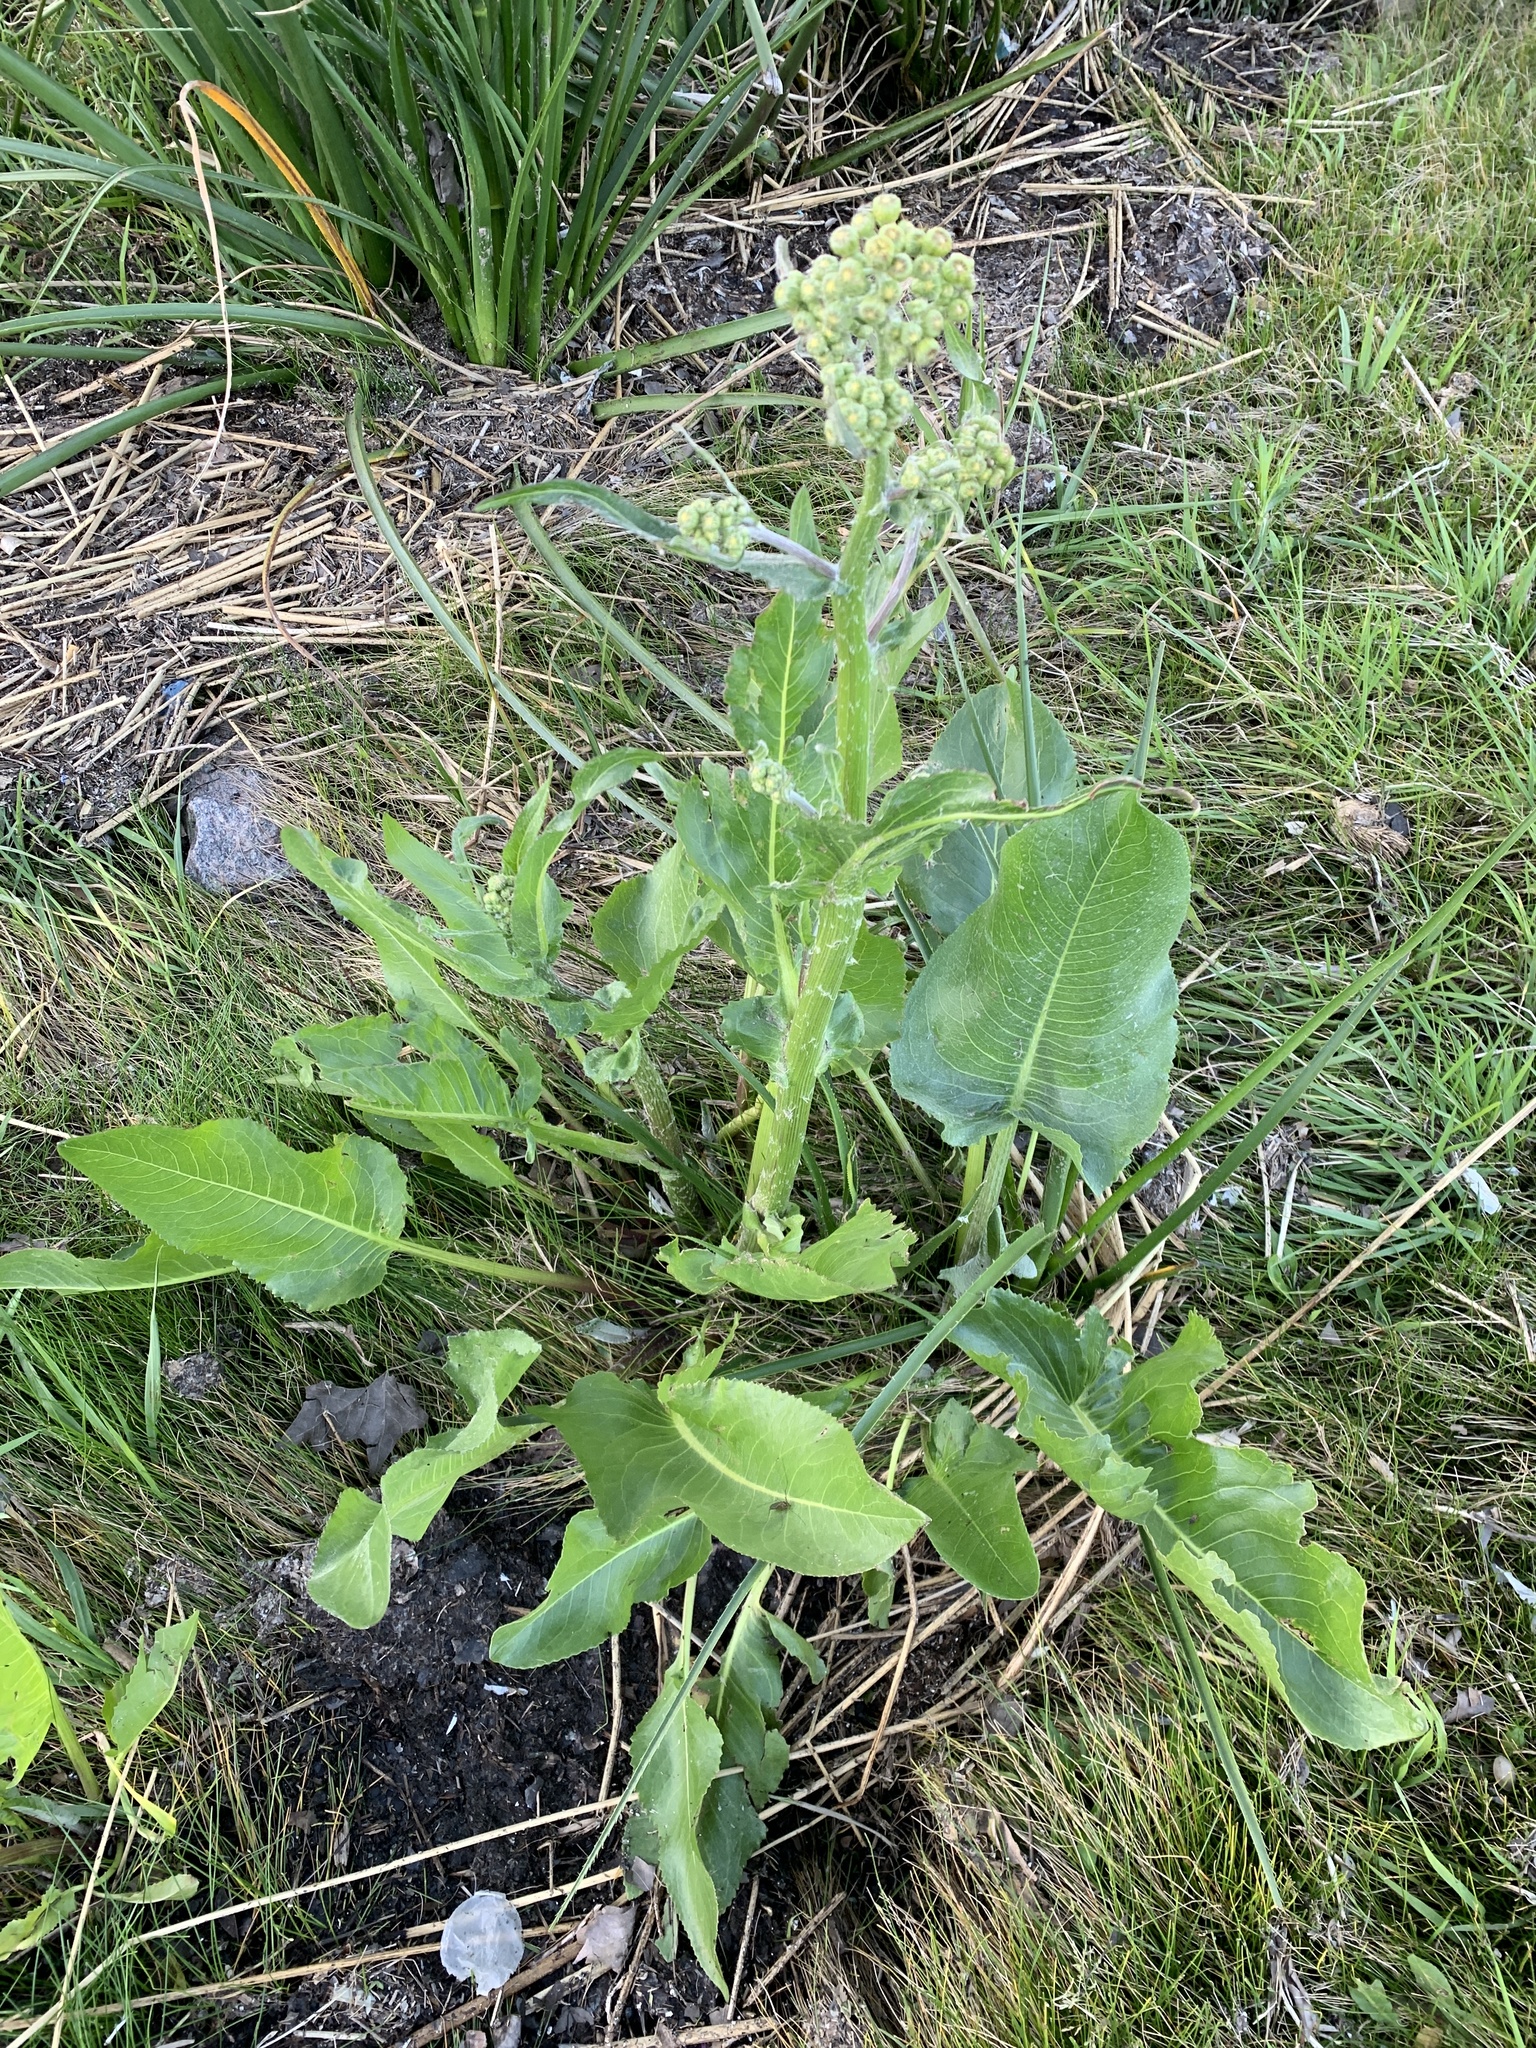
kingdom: Plantae
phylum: Tracheophyta
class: Magnoliopsida
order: Asterales
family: Asteraceae
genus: Senecio
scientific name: Senecio bonariensis
